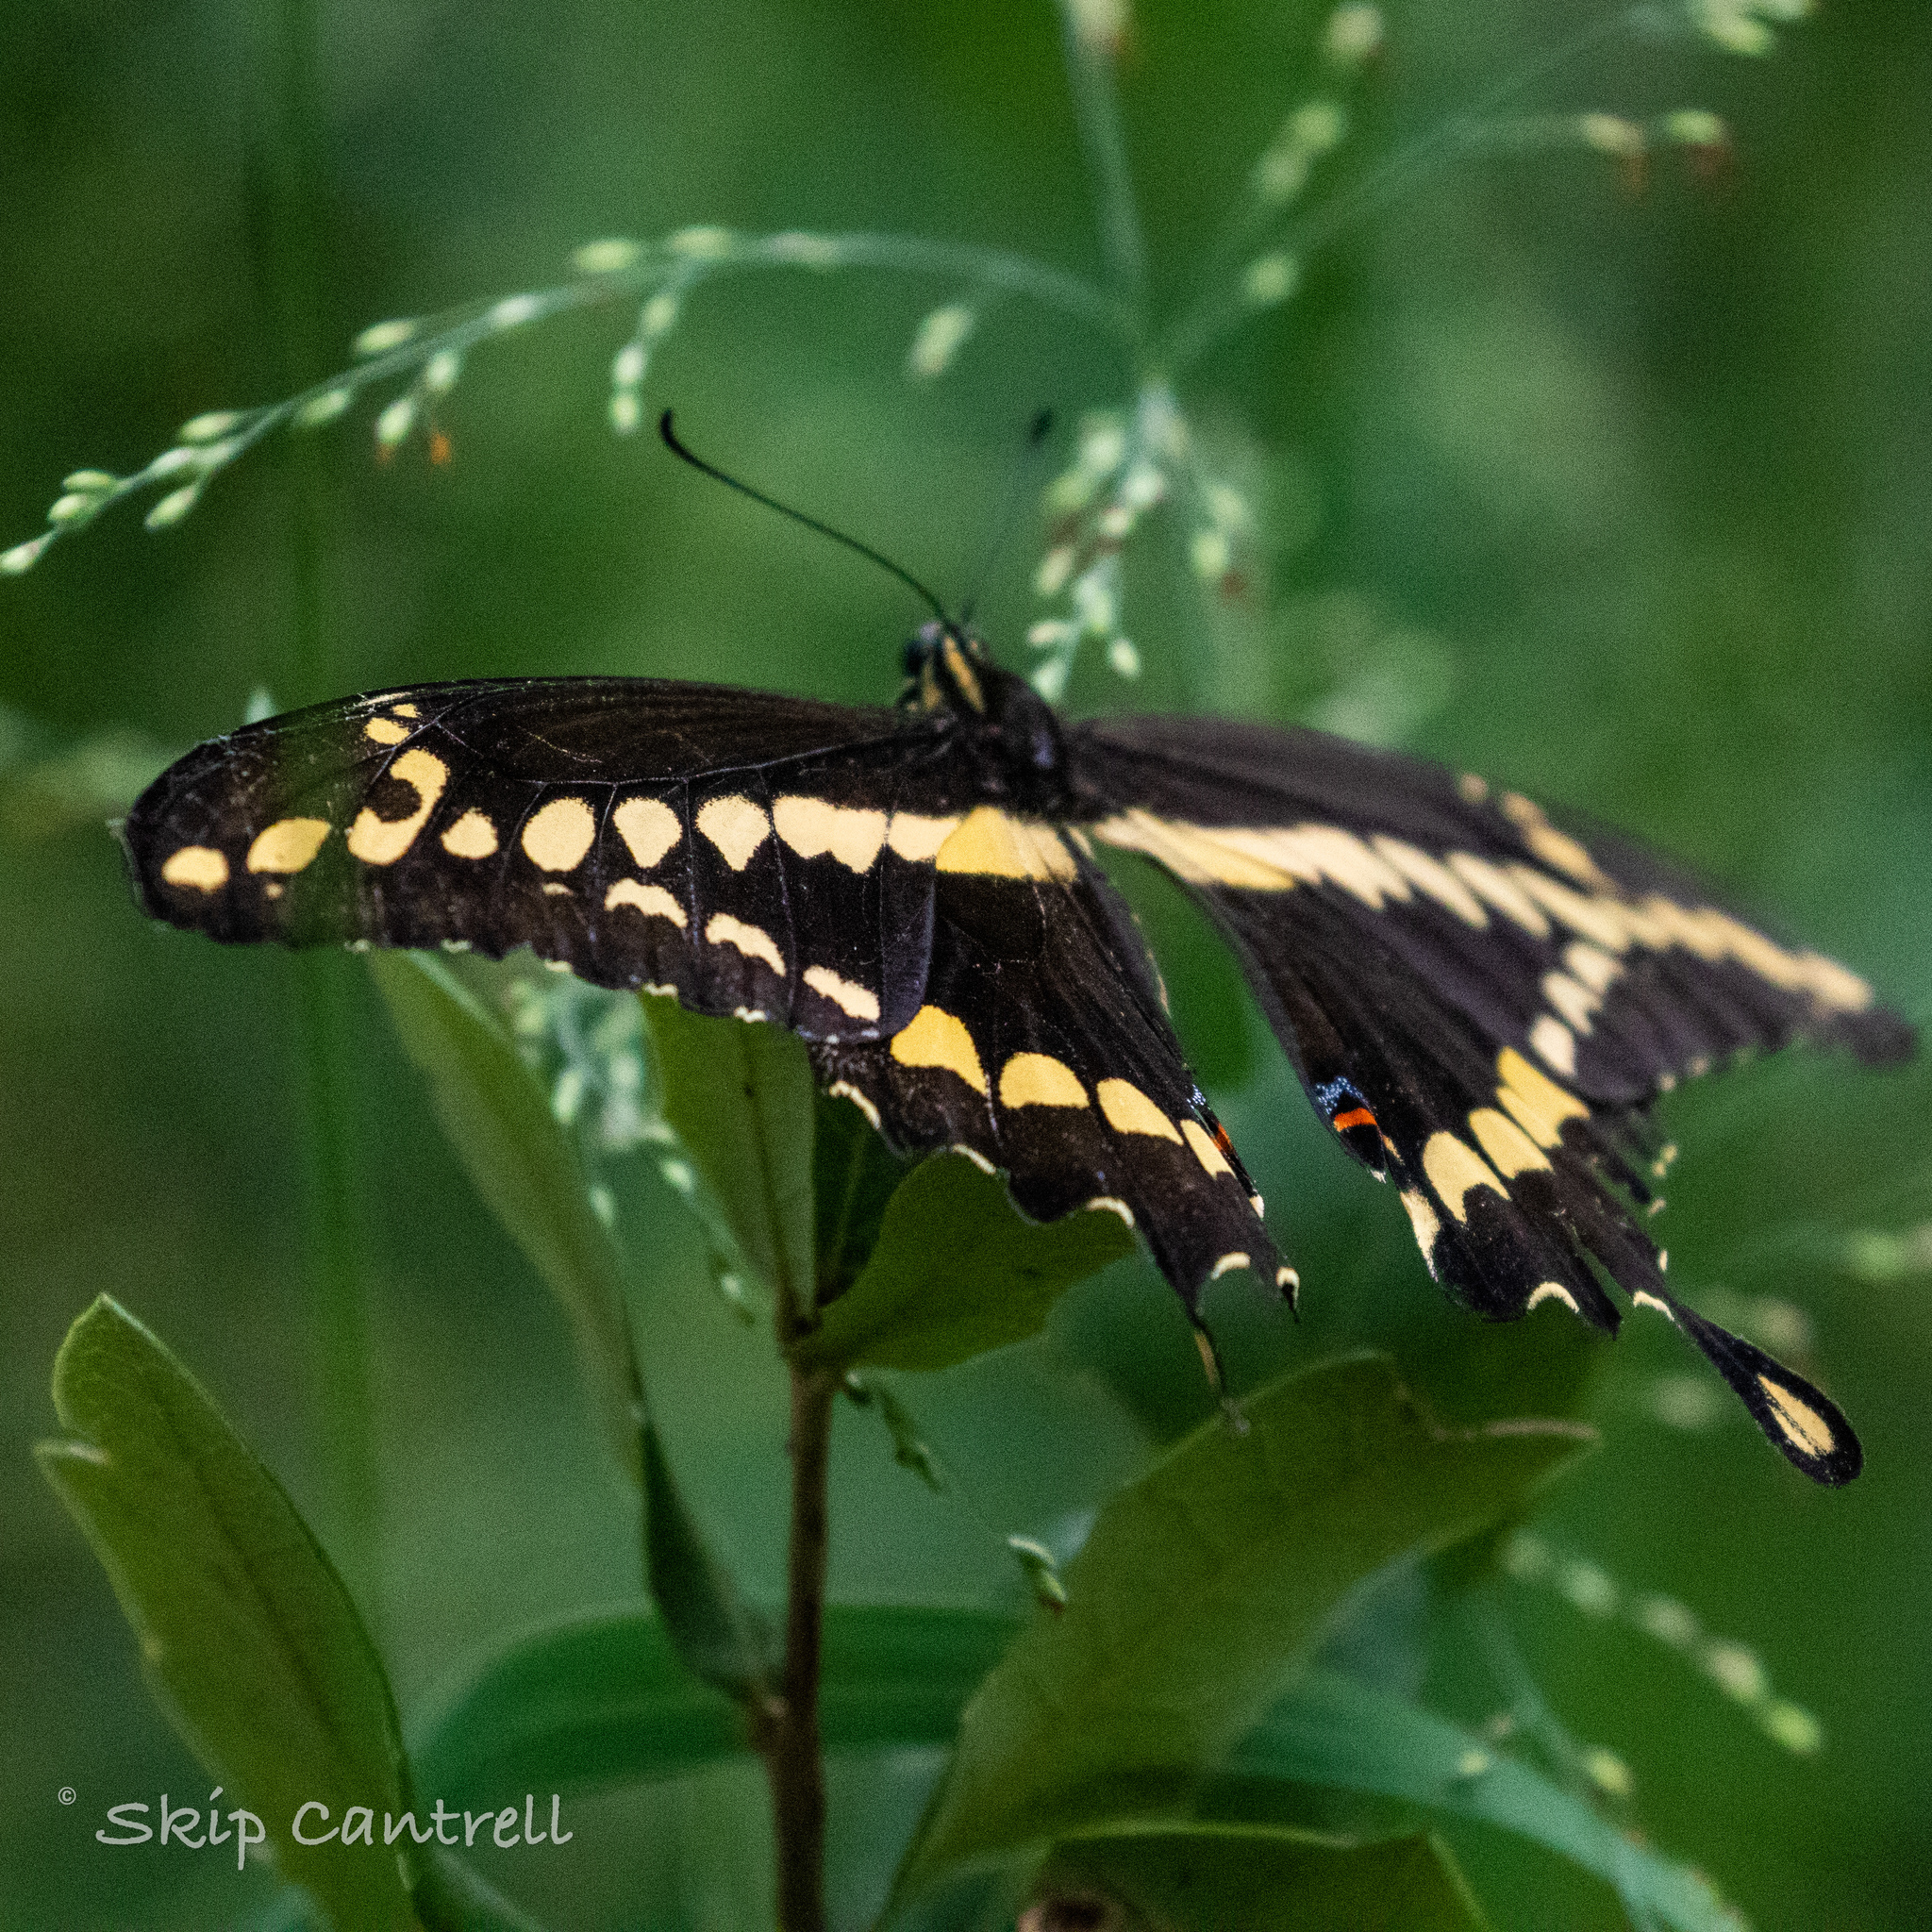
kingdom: Animalia
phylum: Arthropoda
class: Insecta
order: Lepidoptera
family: Papilionidae
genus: Papilio
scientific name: Papilio rumiko
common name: Western giant swallowtail
